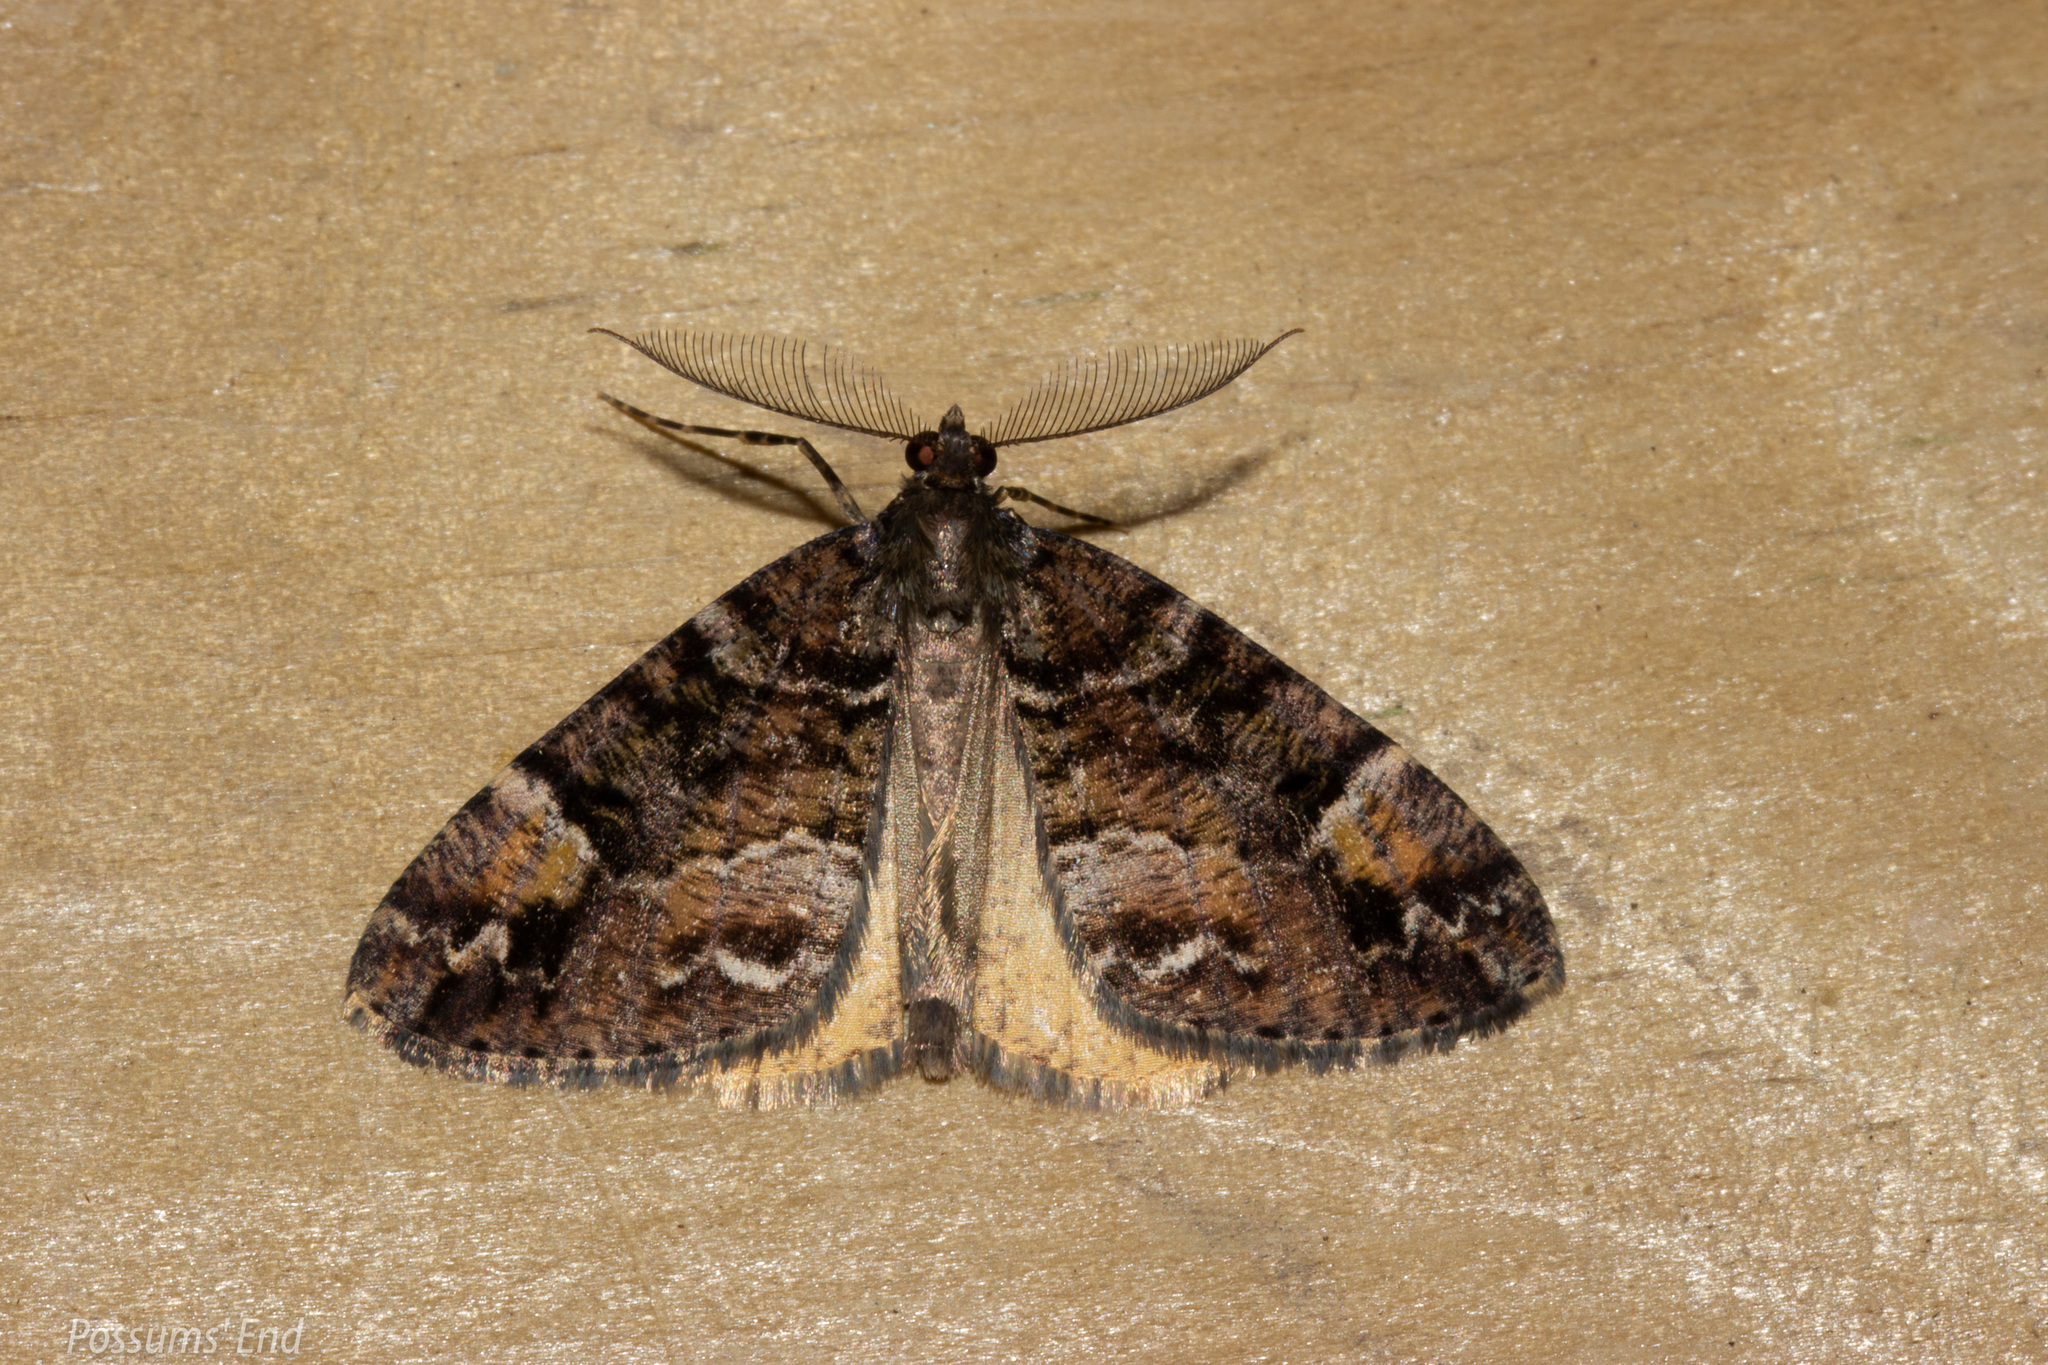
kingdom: Animalia
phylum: Arthropoda
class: Insecta
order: Lepidoptera
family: Geometridae
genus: Pseudocoremia
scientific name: Pseudocoremia productata
